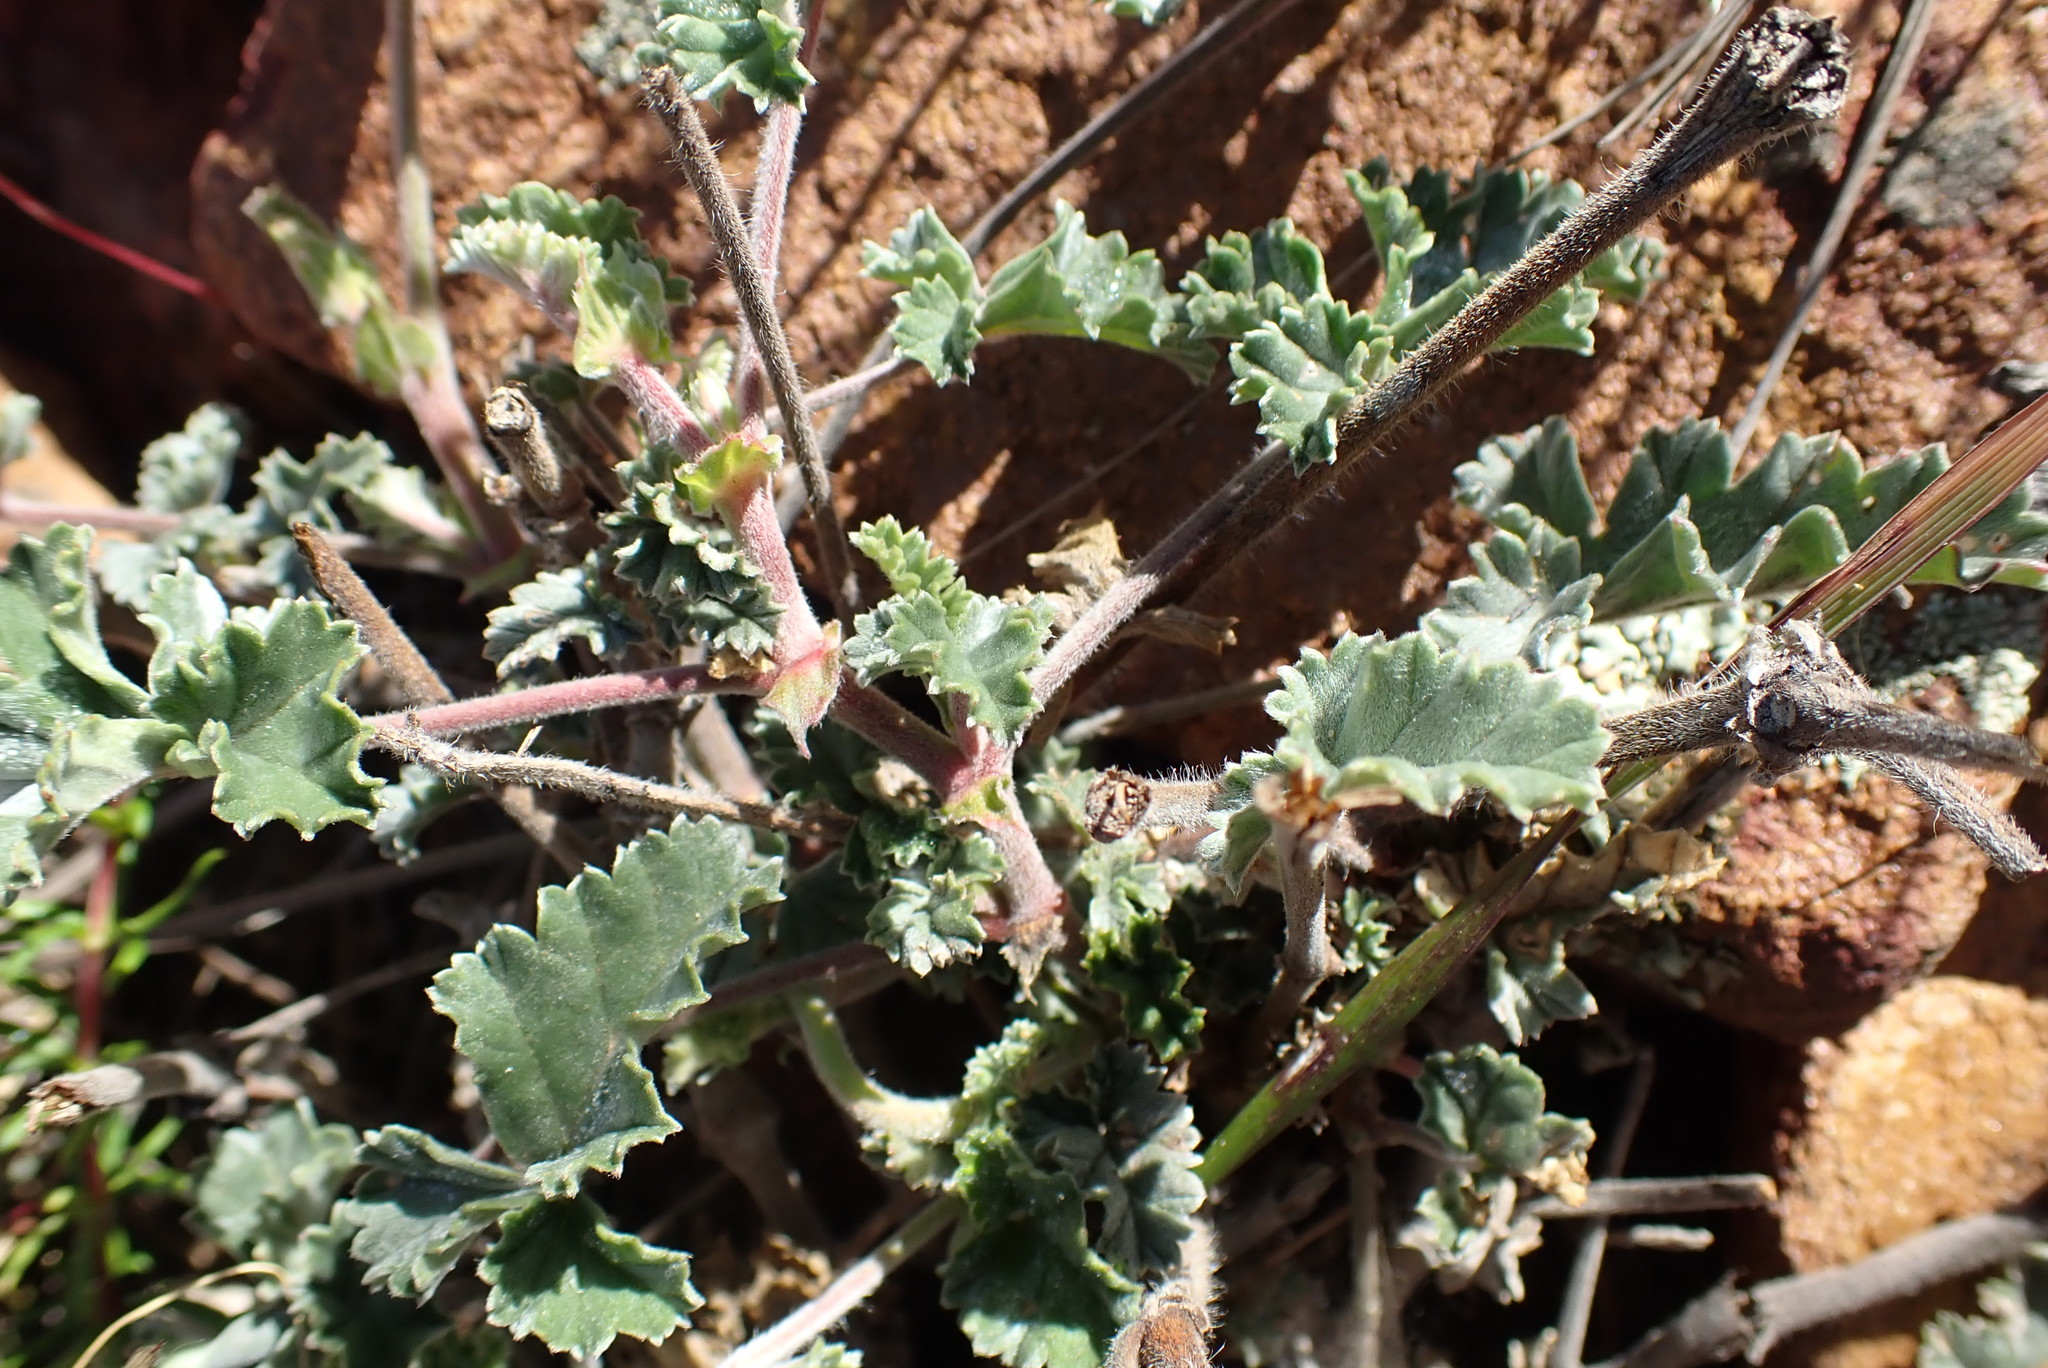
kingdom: Plantae
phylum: Tracheophyta
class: Magnoliopsida
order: Geraniales
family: Geraniaceae
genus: Pelargonium
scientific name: Pelargonium candicans
